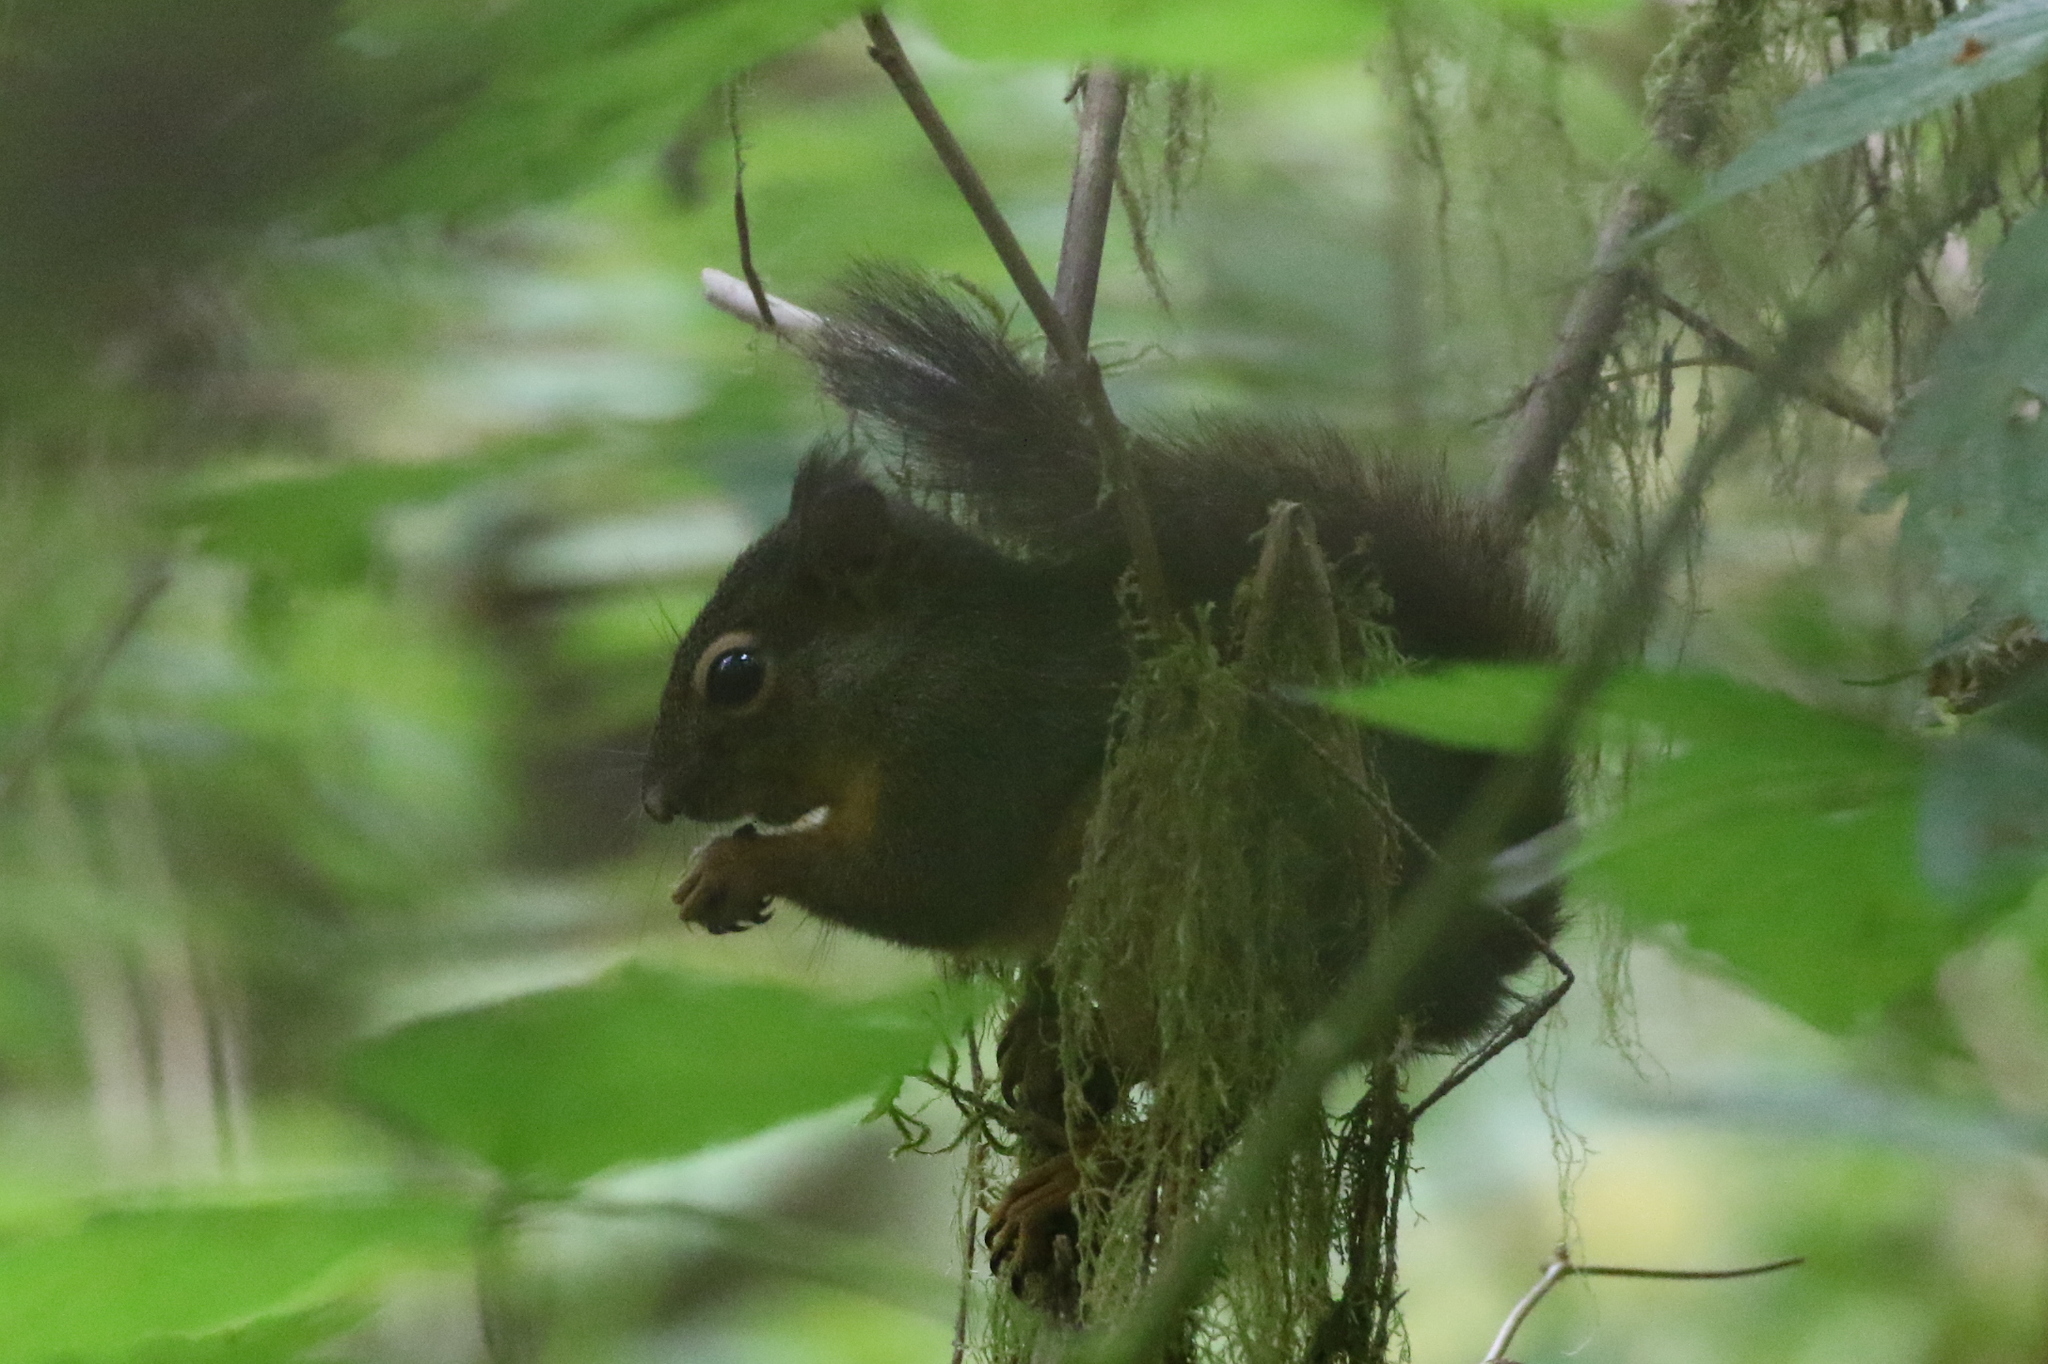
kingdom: Animalia
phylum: Chordata
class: Mammalia
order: Rodentia
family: Sciuridae
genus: Tamiasciurus
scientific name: Tamiasciurus douglasii
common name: Douglas's squirrel
